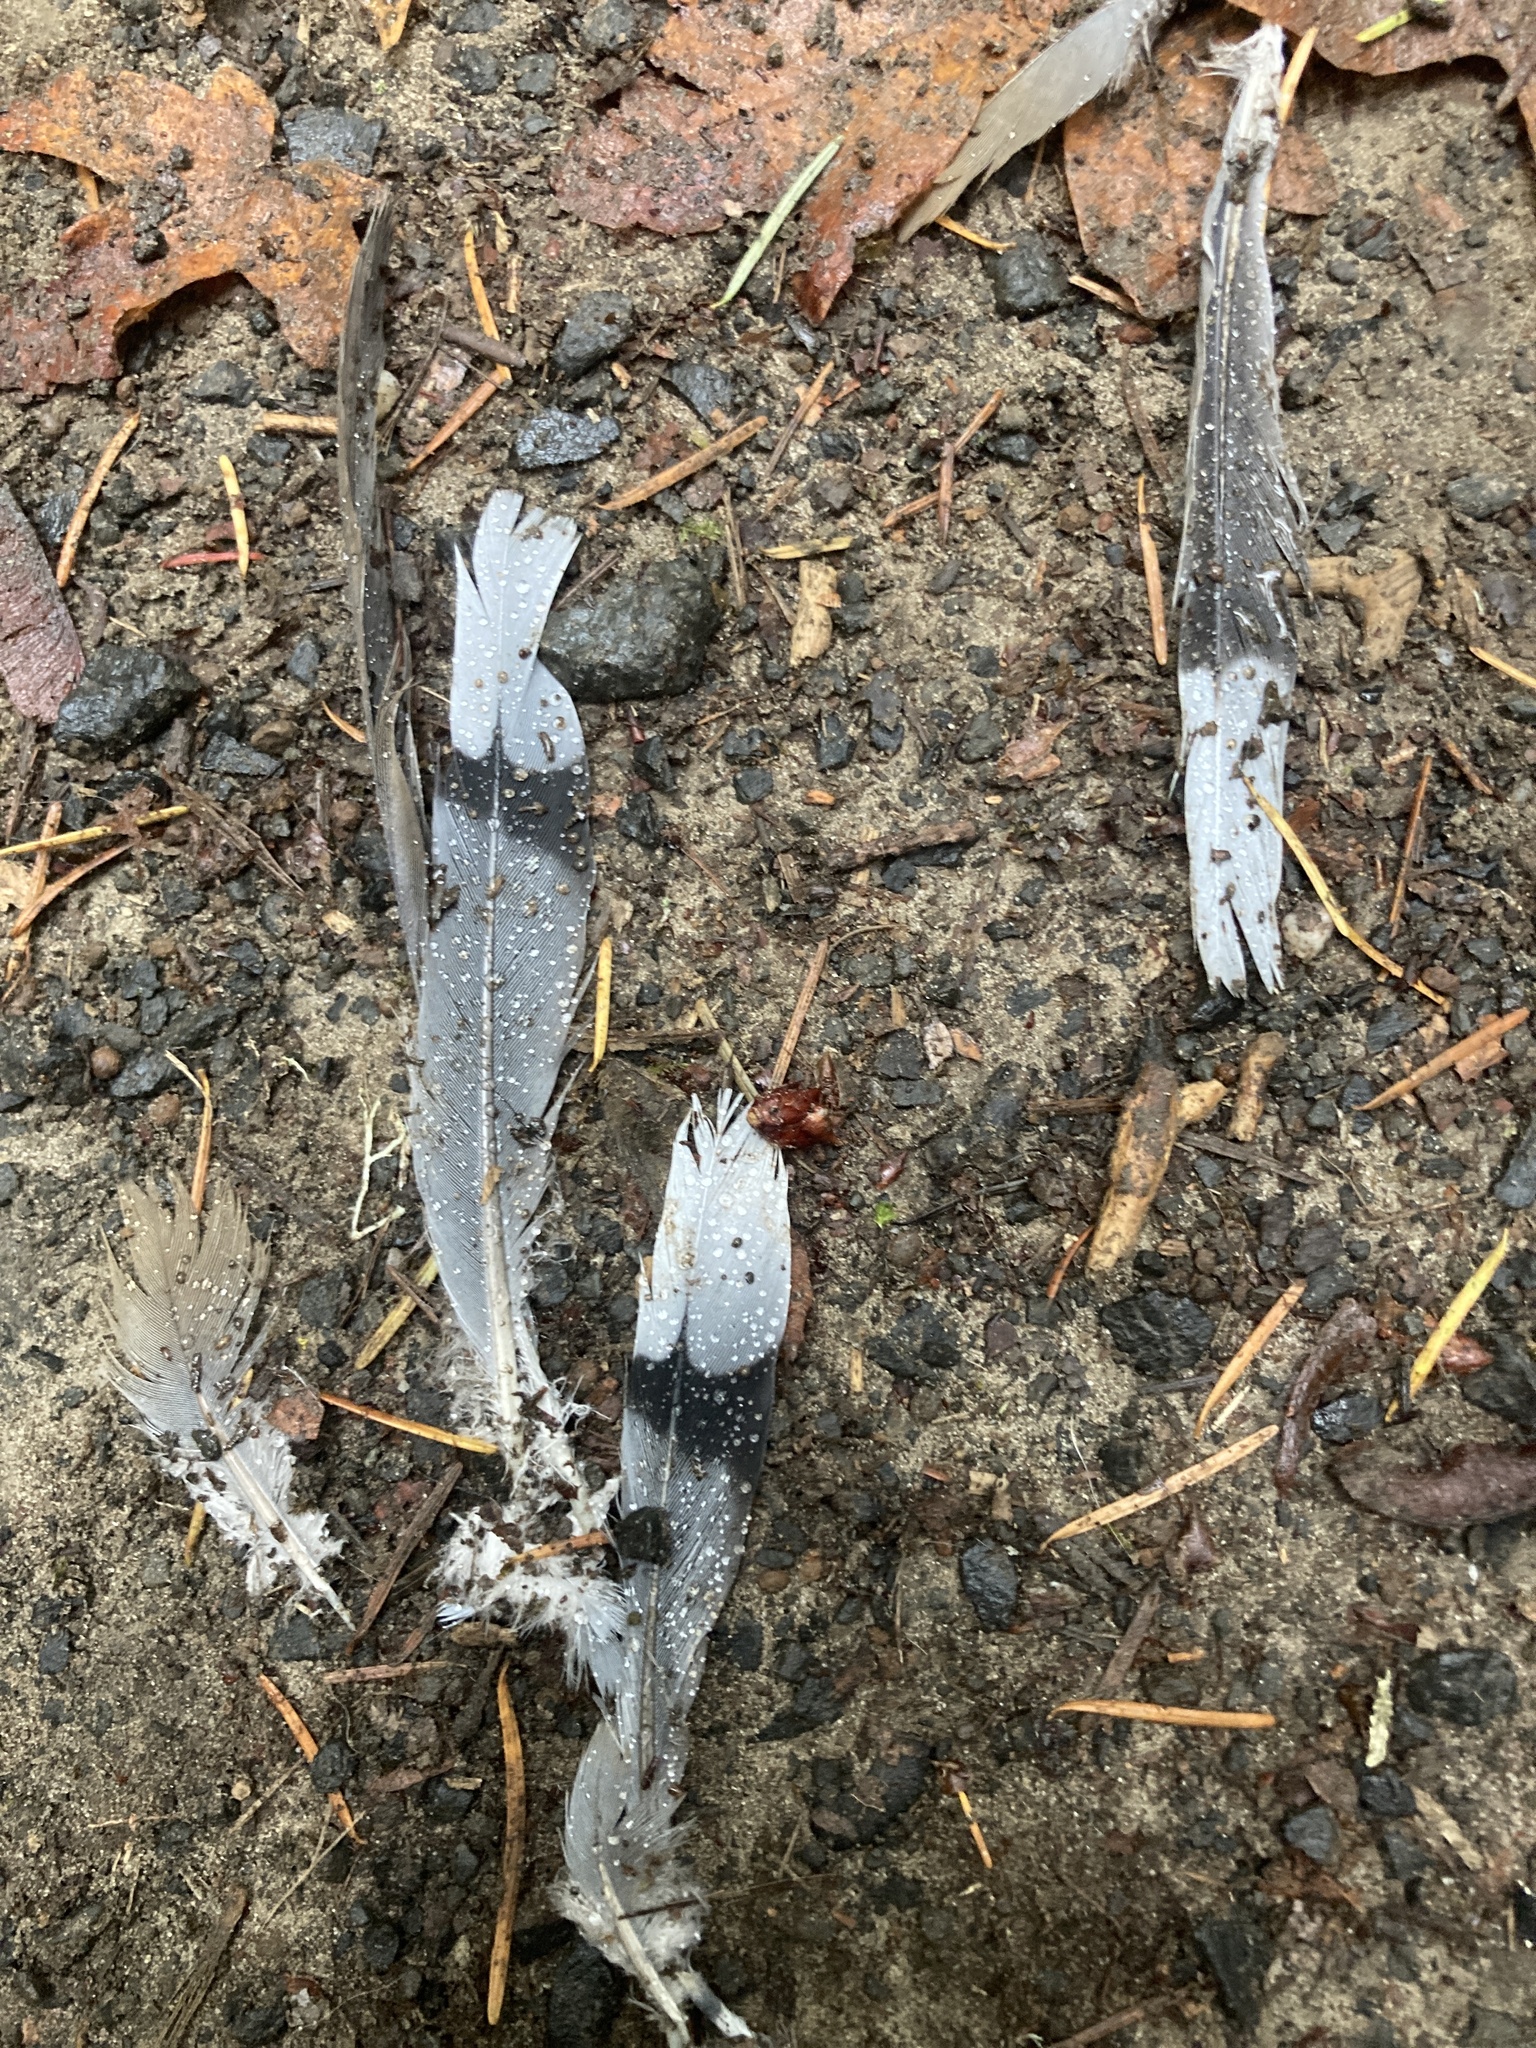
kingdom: Animalia
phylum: Chordata
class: Aves
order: Columbiformes
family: Columbidae
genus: Zenaida
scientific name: Zenaida macroura
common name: Mourning dove
